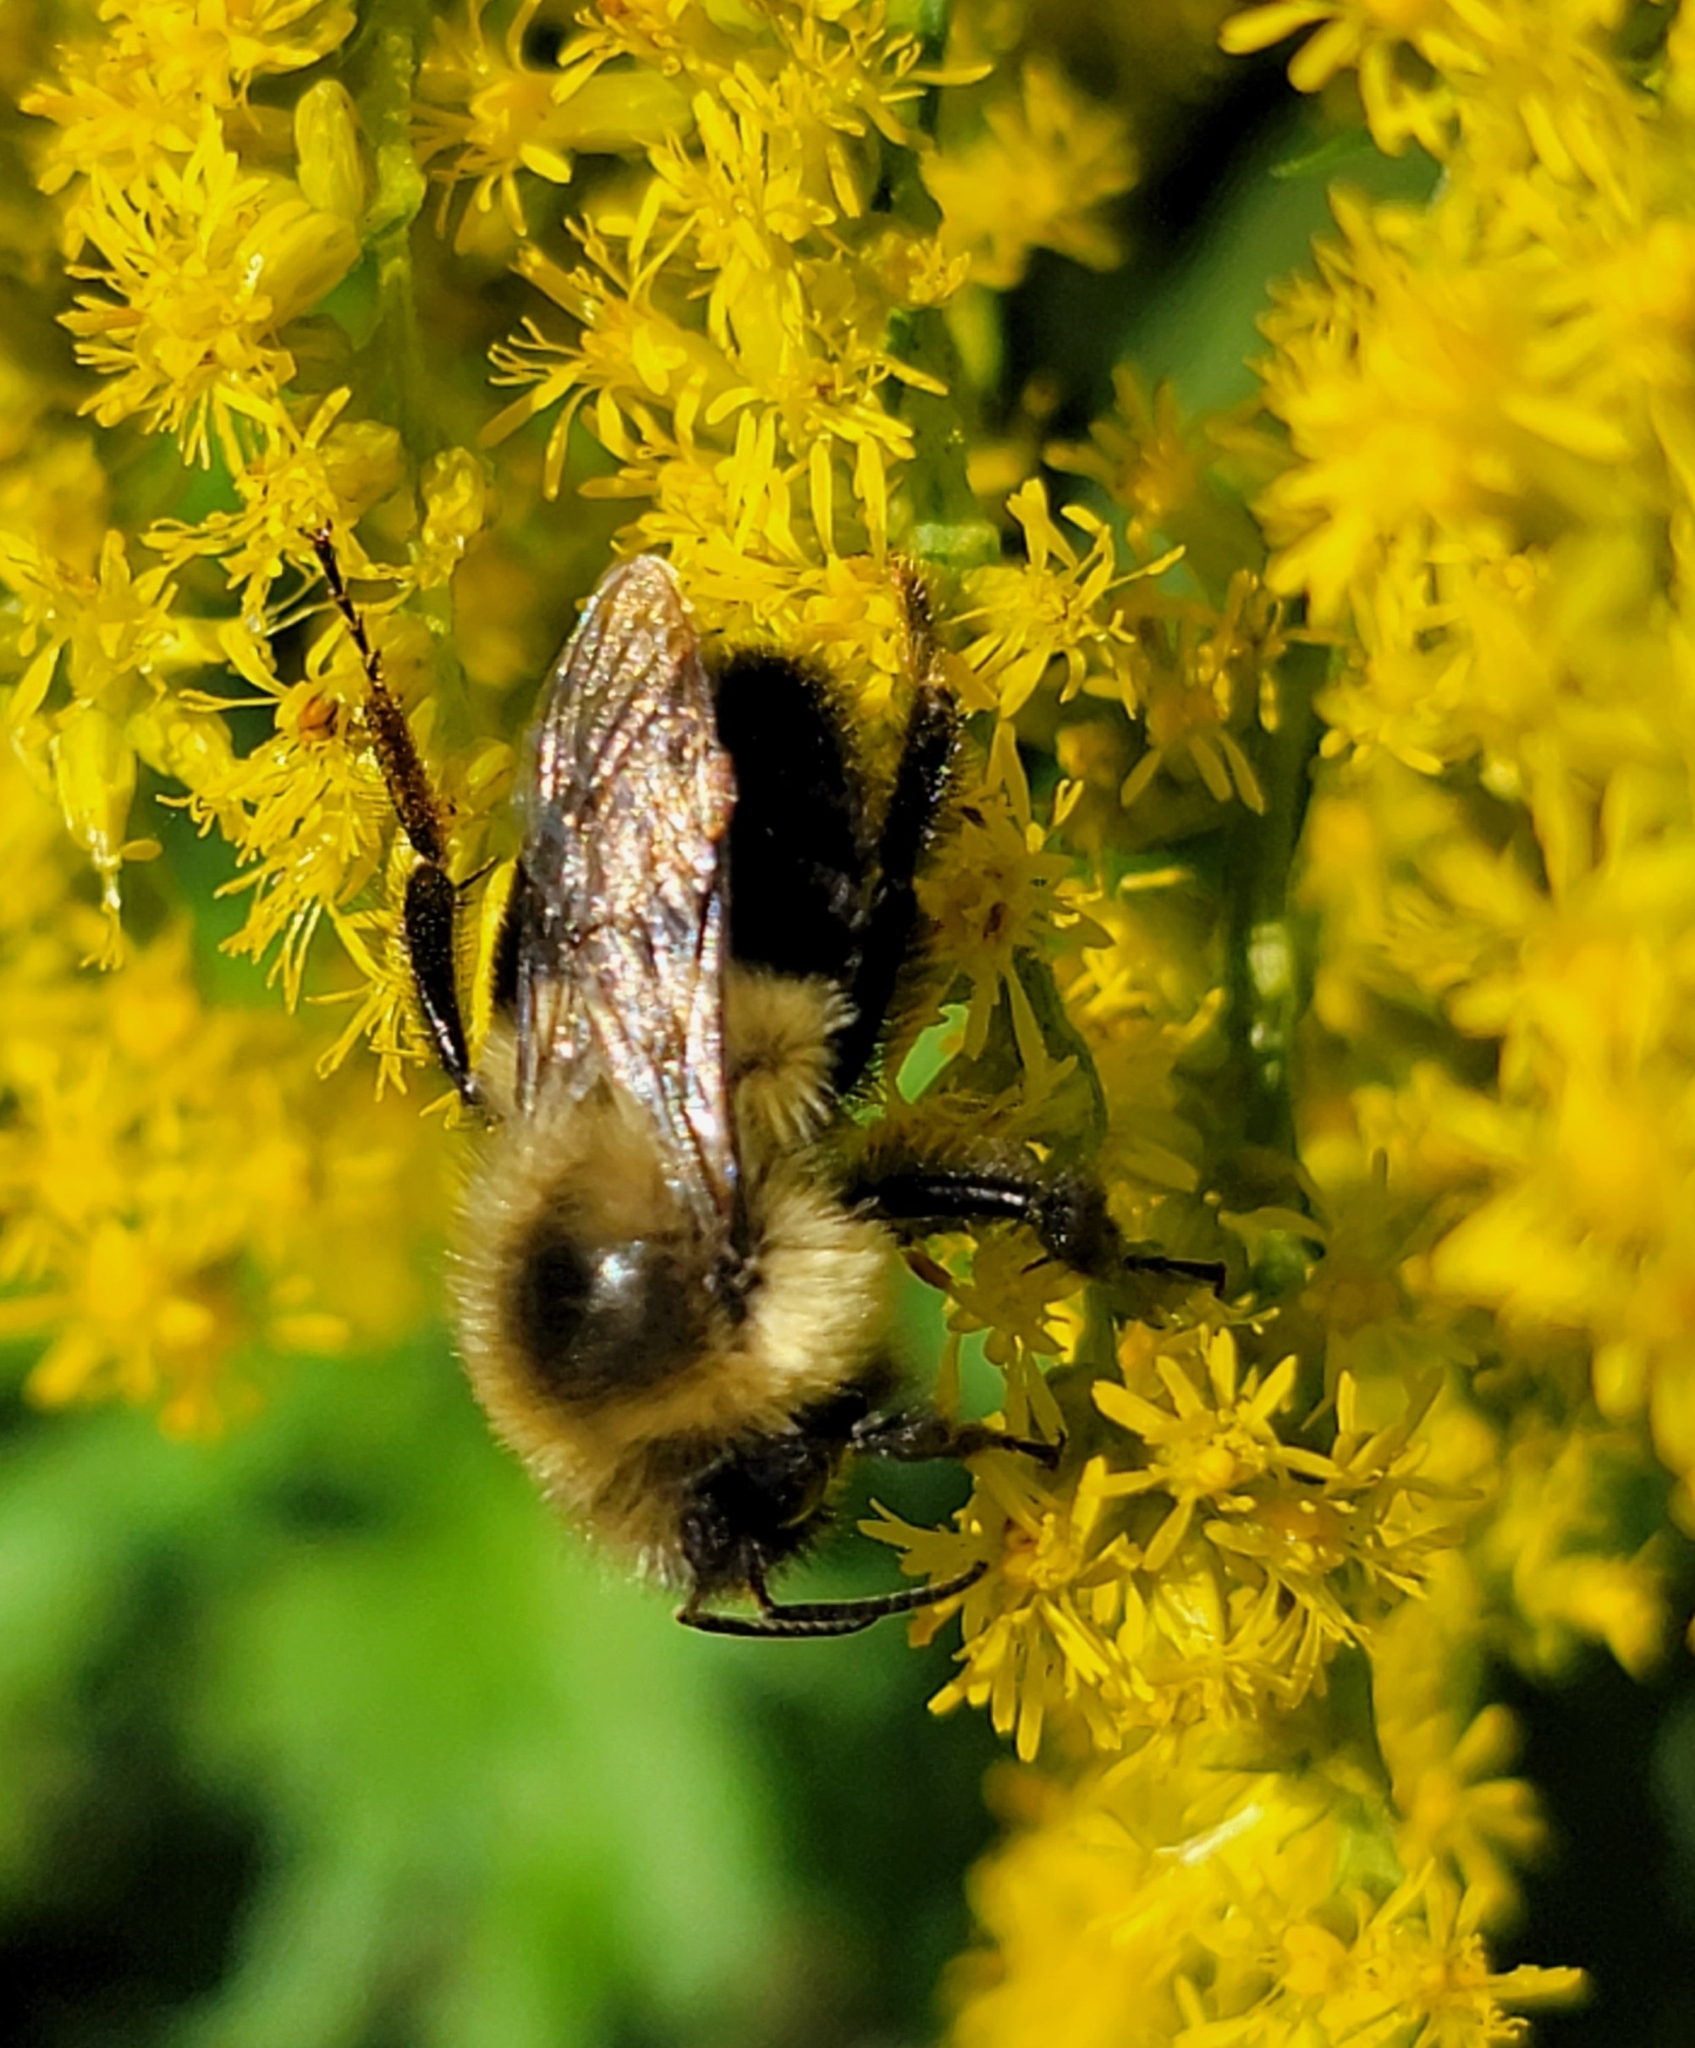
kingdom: Animalia
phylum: Arthropoda
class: Insecta
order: Hymenoptera
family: Apidae
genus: Bombus
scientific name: Bombus impatiens
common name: Common eastern bumble bee
